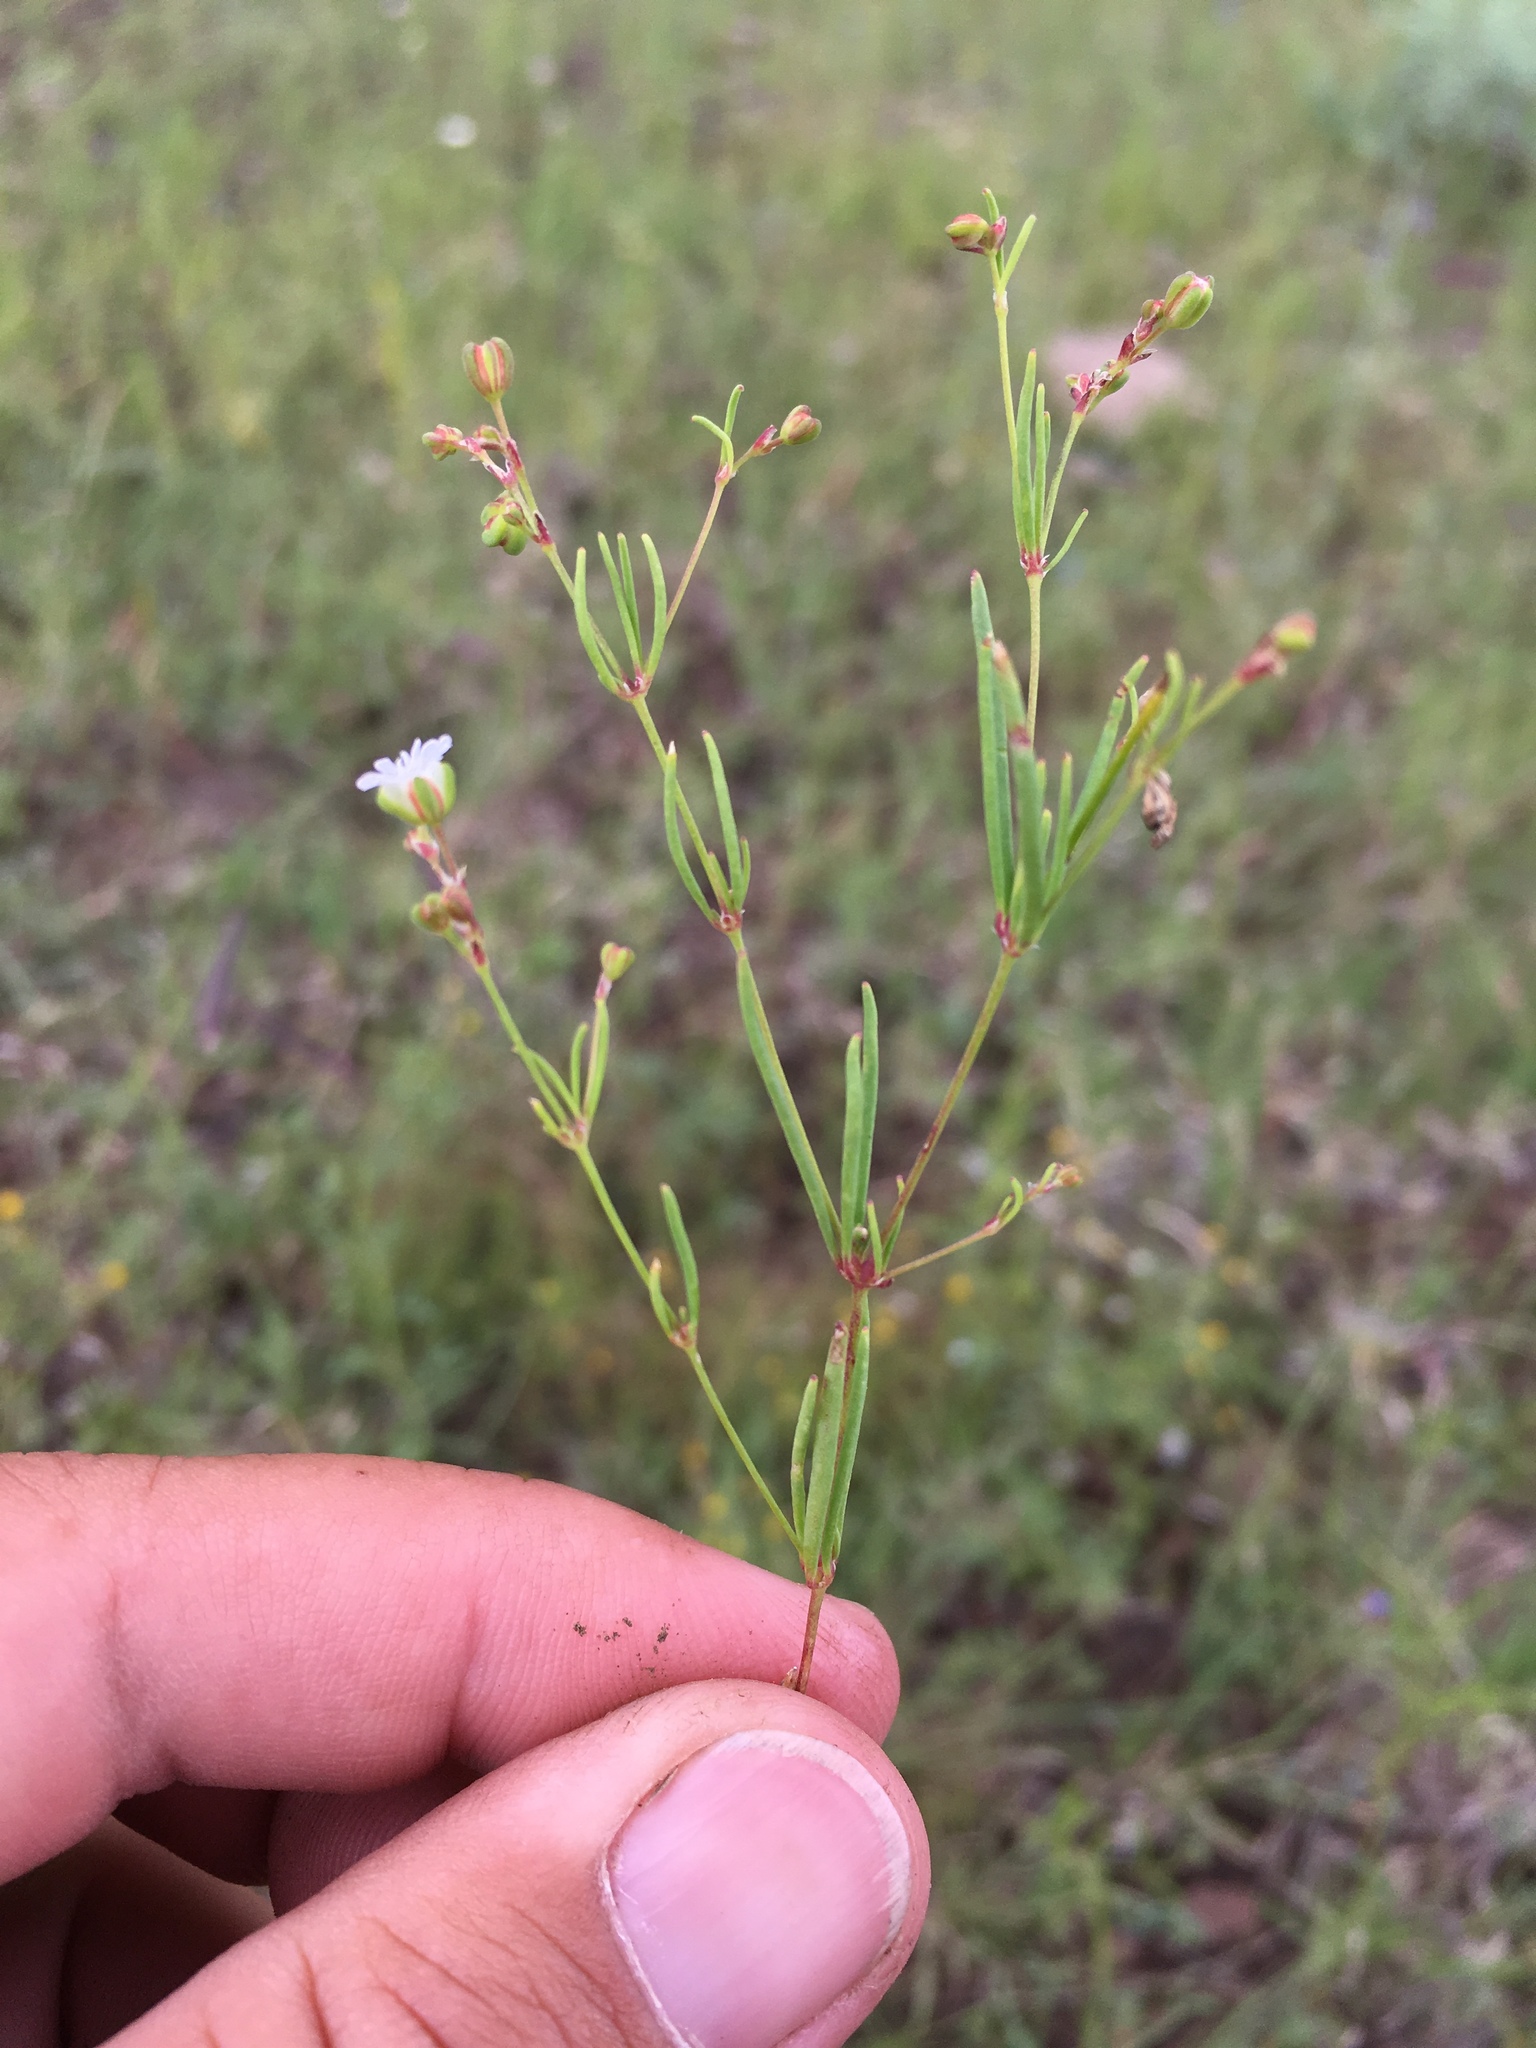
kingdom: Plantae
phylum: Tracheophyta
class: Magnoliopsida
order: Caryophyllales
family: Caryophyllaceae
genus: Drymaria
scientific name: Drymaria molluginea
